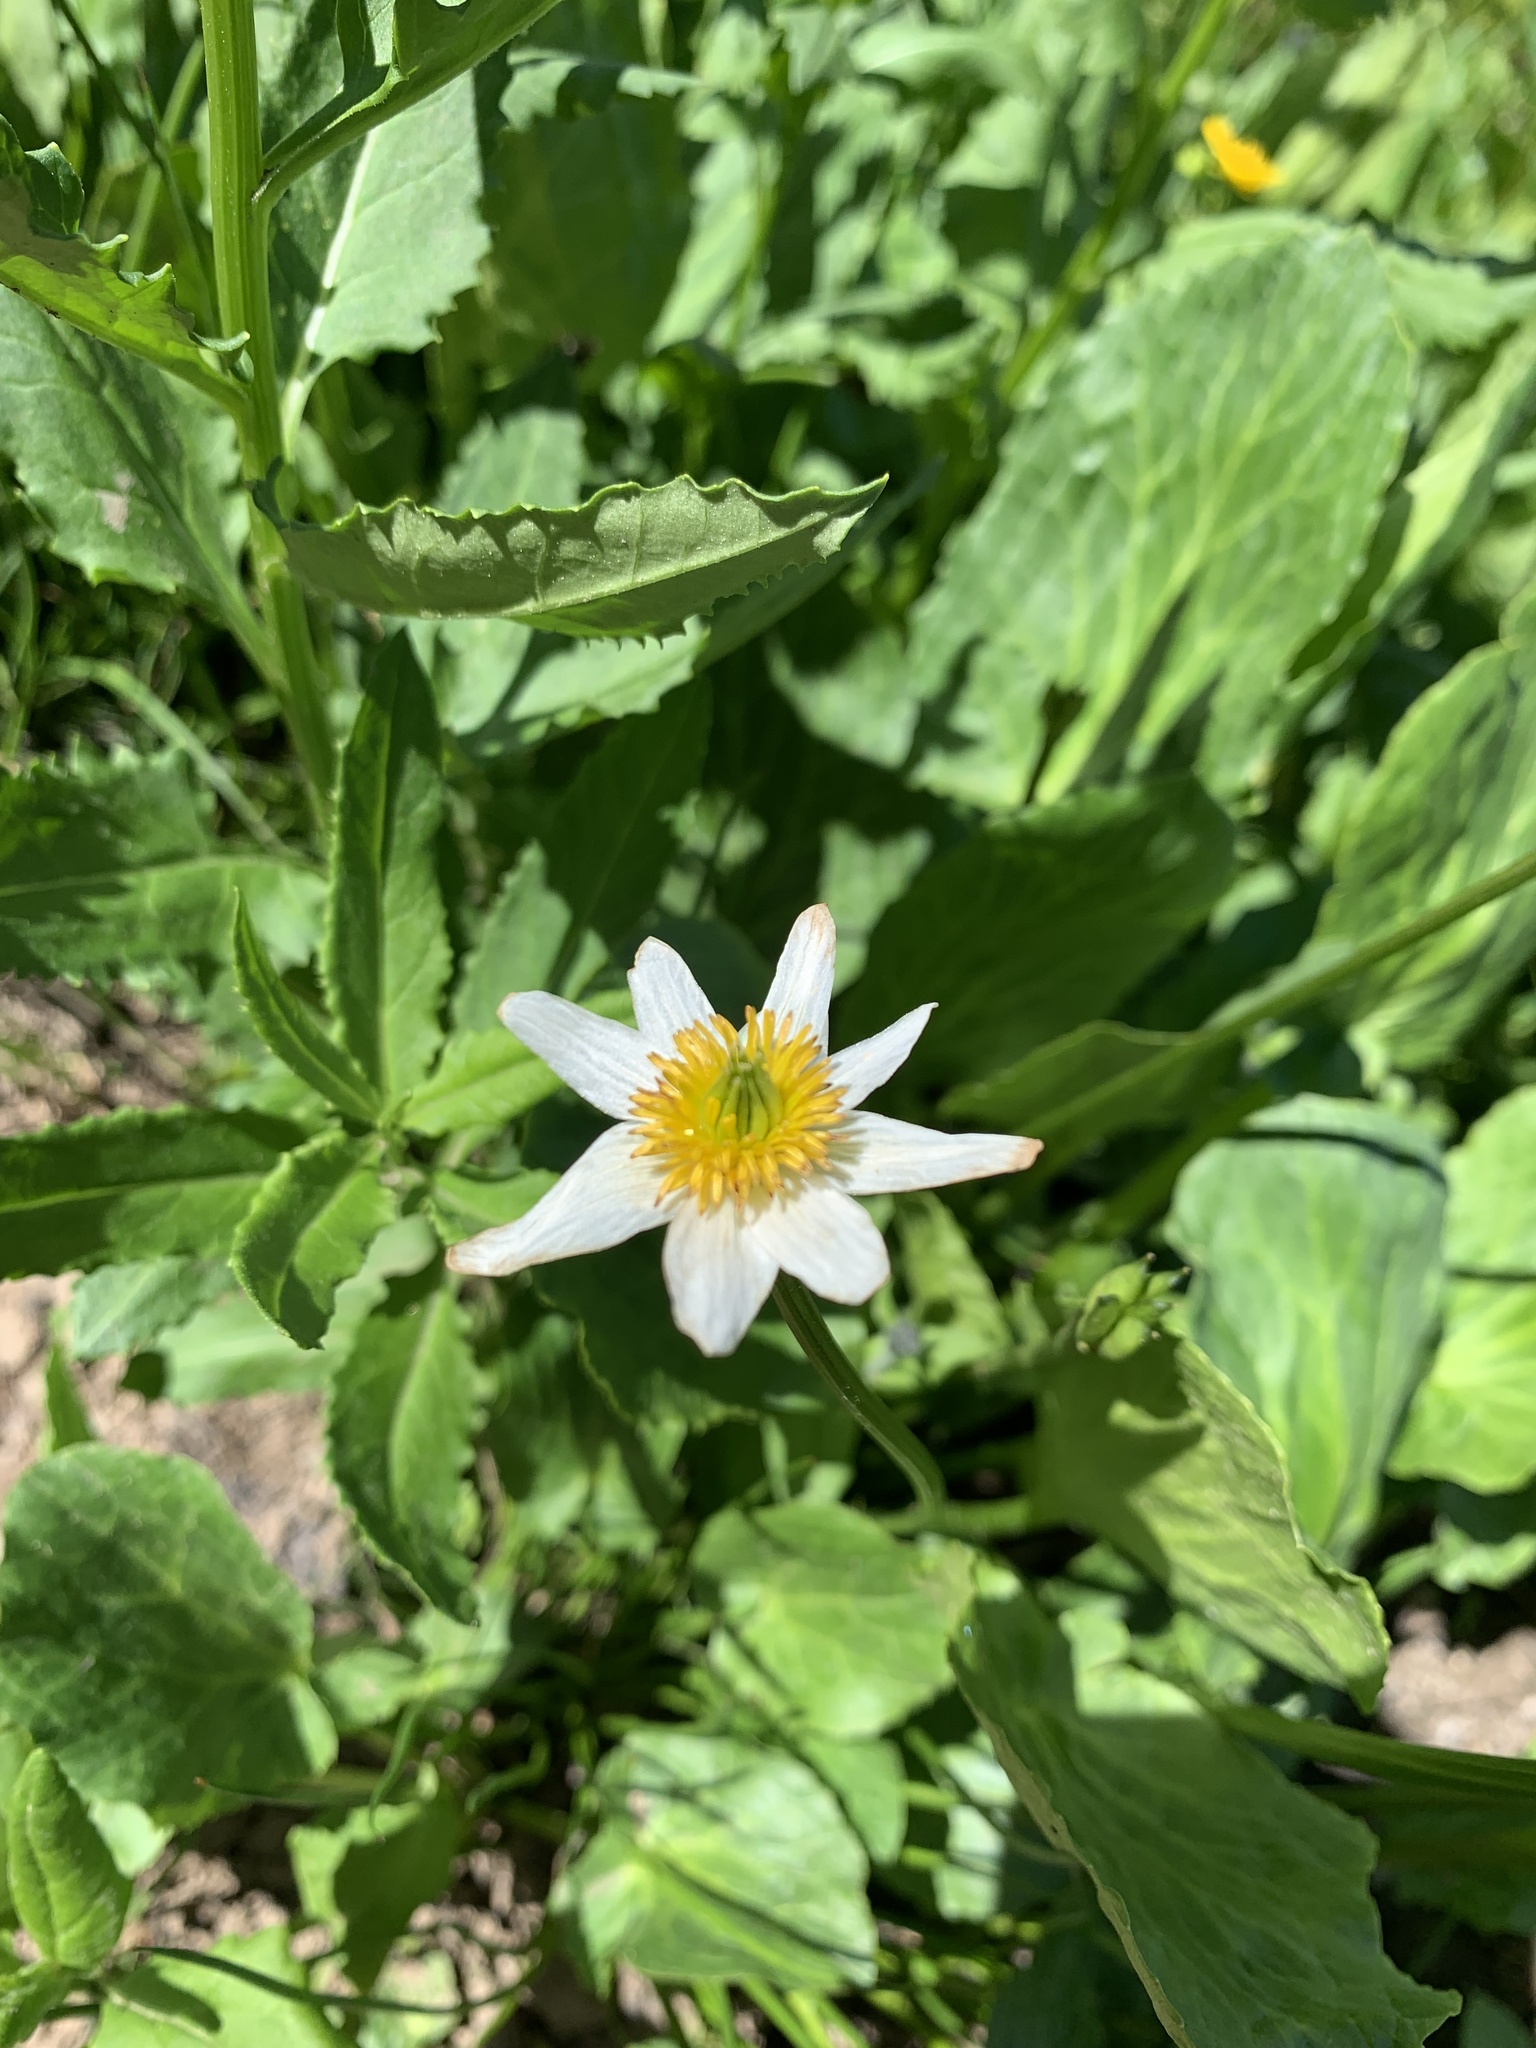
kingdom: Plantae
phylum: Tracheophyta
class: Magnoliopsida
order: Ranunculales
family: Ranunculaceae
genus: Caltha
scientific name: Caltha leptosepala
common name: Elkslip
